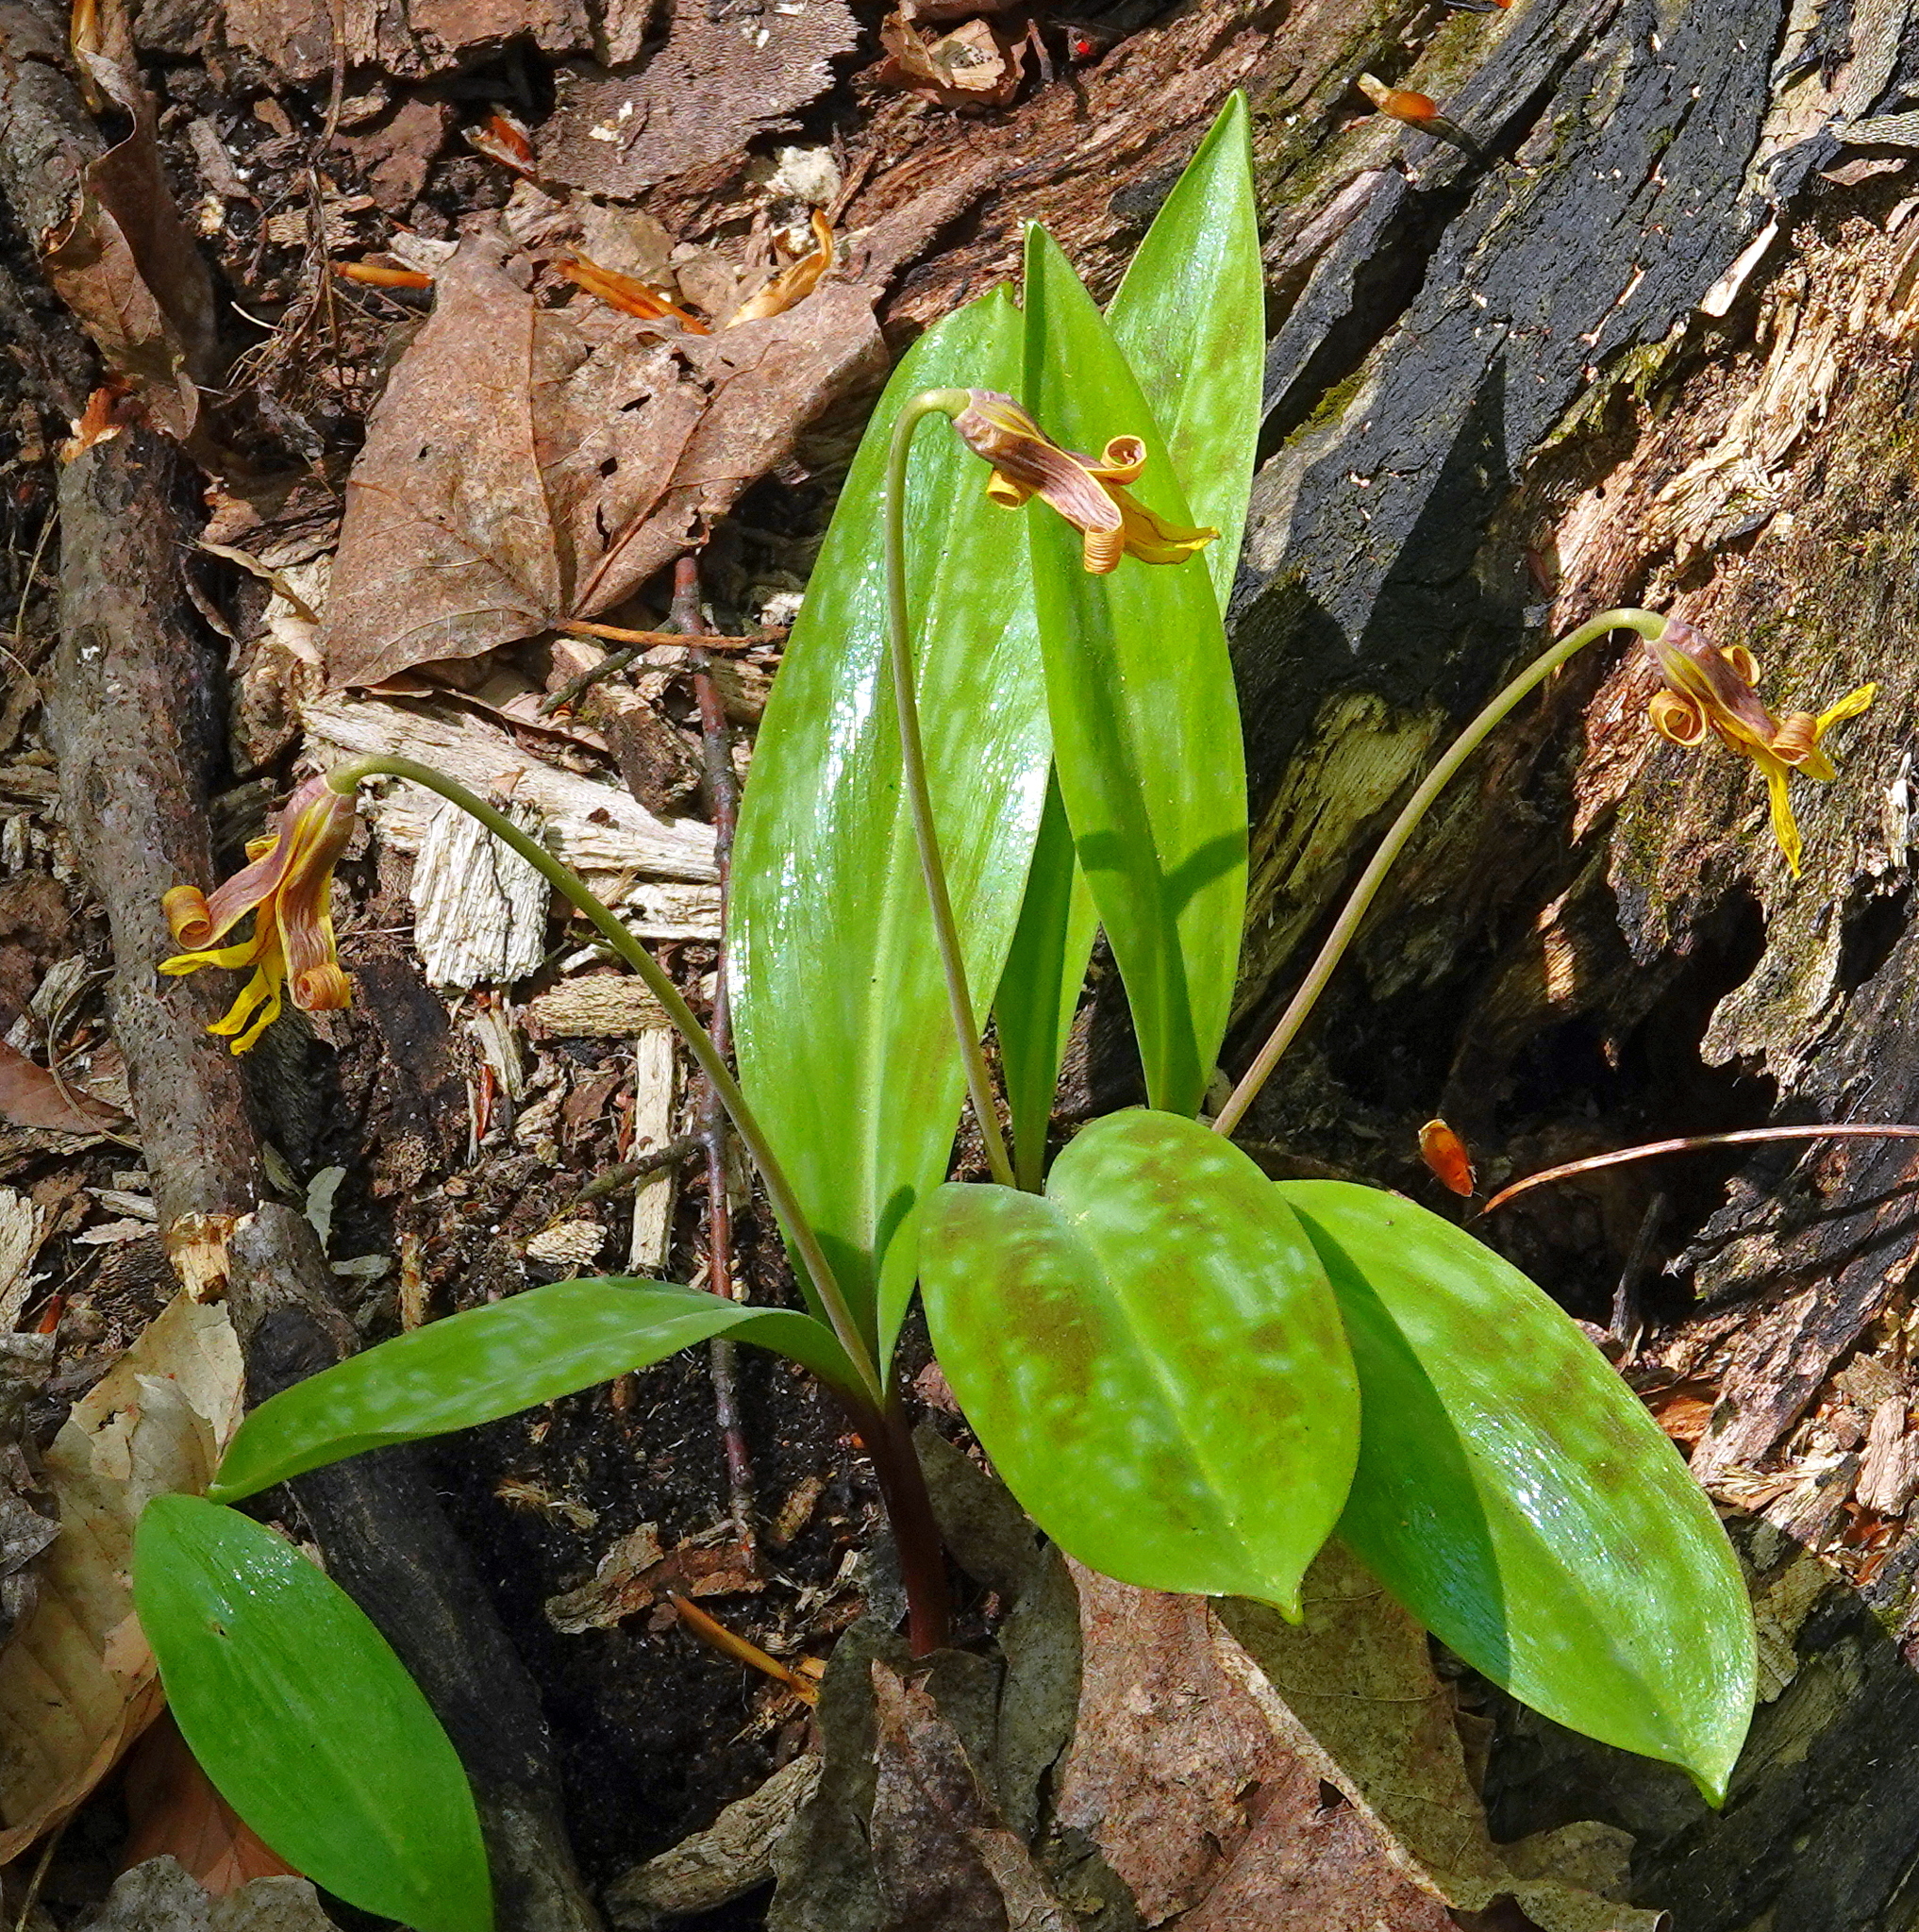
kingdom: Plantae
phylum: Tracheophyta
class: Liliopsida
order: Liliales
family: Liliaceae
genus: Erythronium
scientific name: Erythronium americanum
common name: Yellow adder's-tongue
